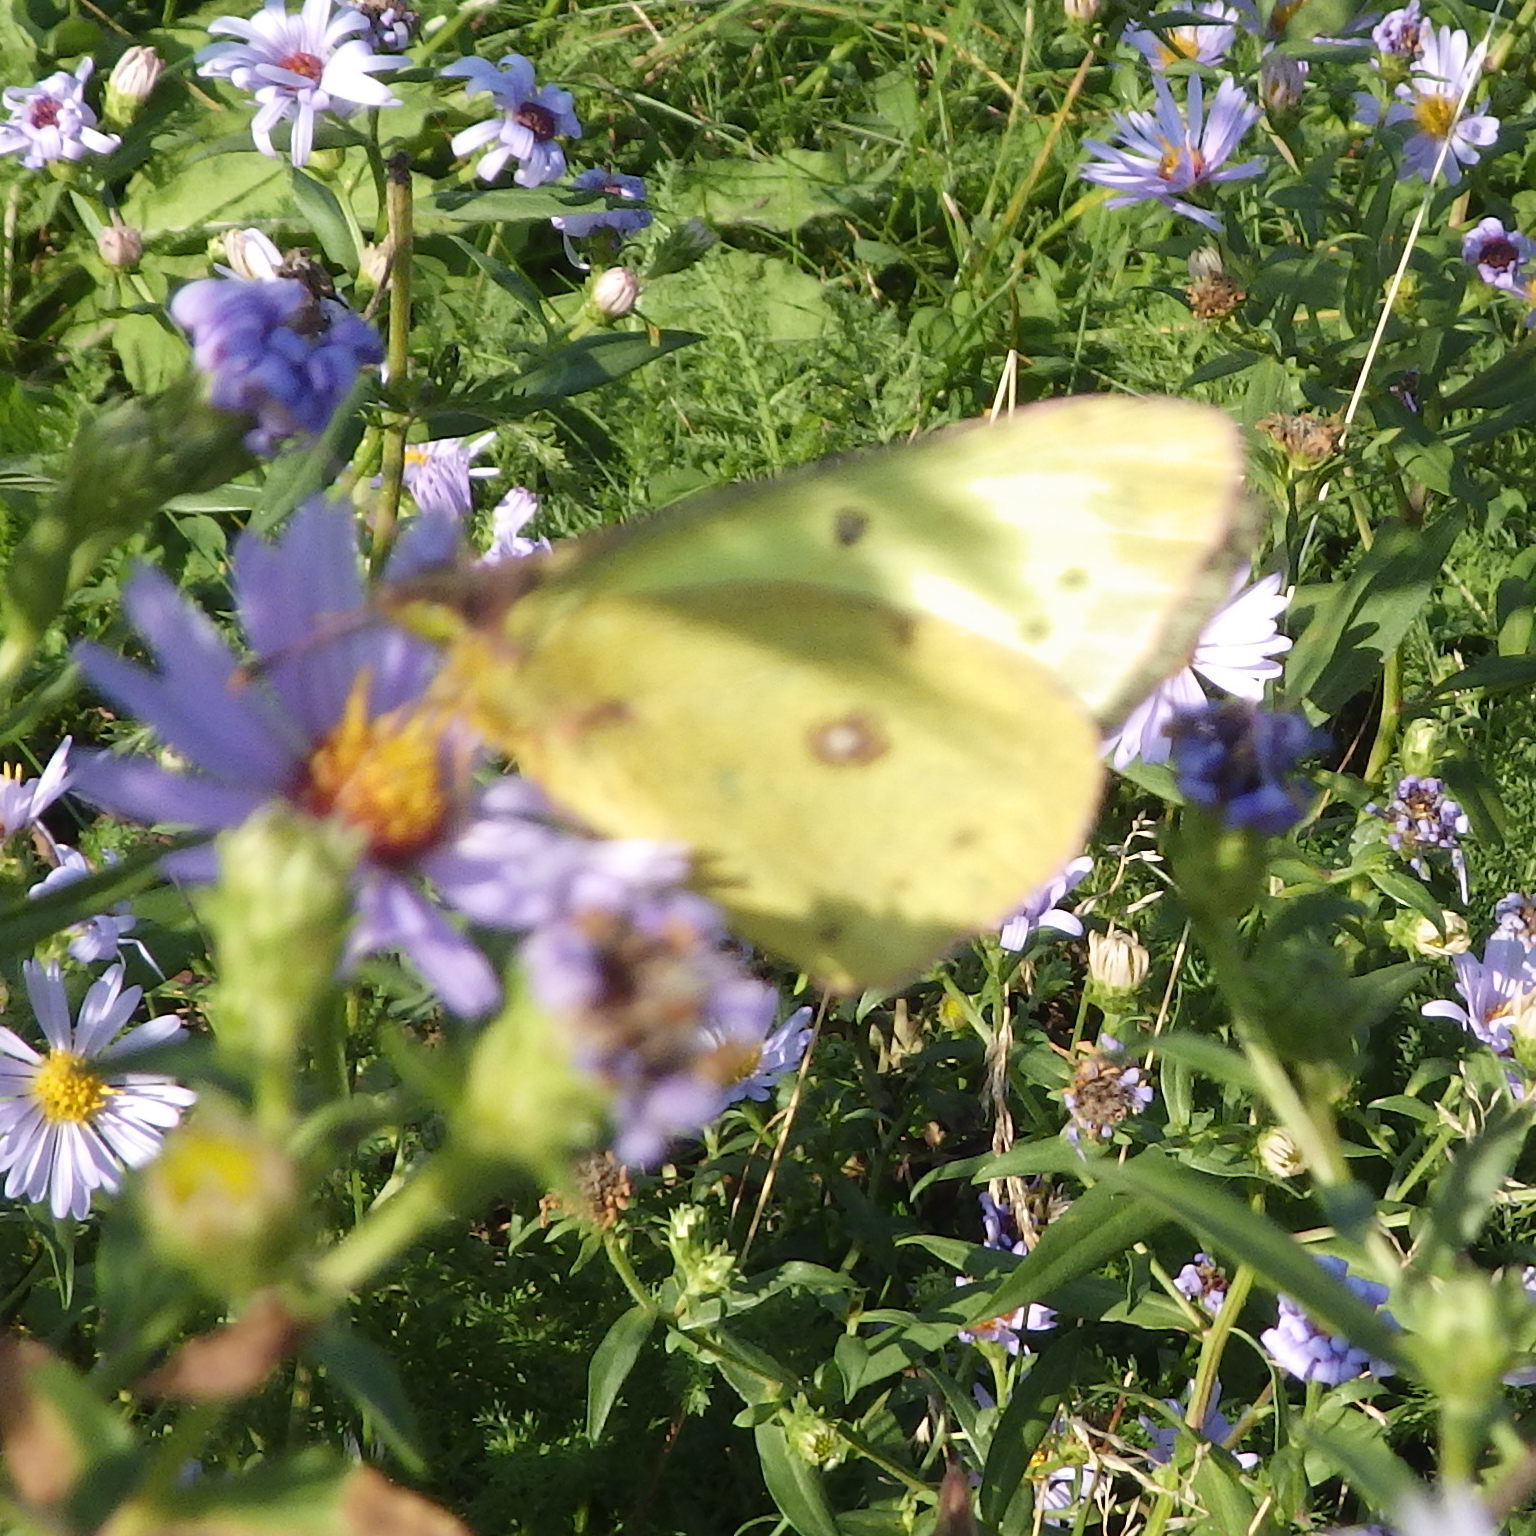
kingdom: Animalia
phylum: Arthropoda
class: Insecta
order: Lepidoptera
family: Pieridae
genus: Colias
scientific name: Colias philodice
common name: Clouded sulphur
